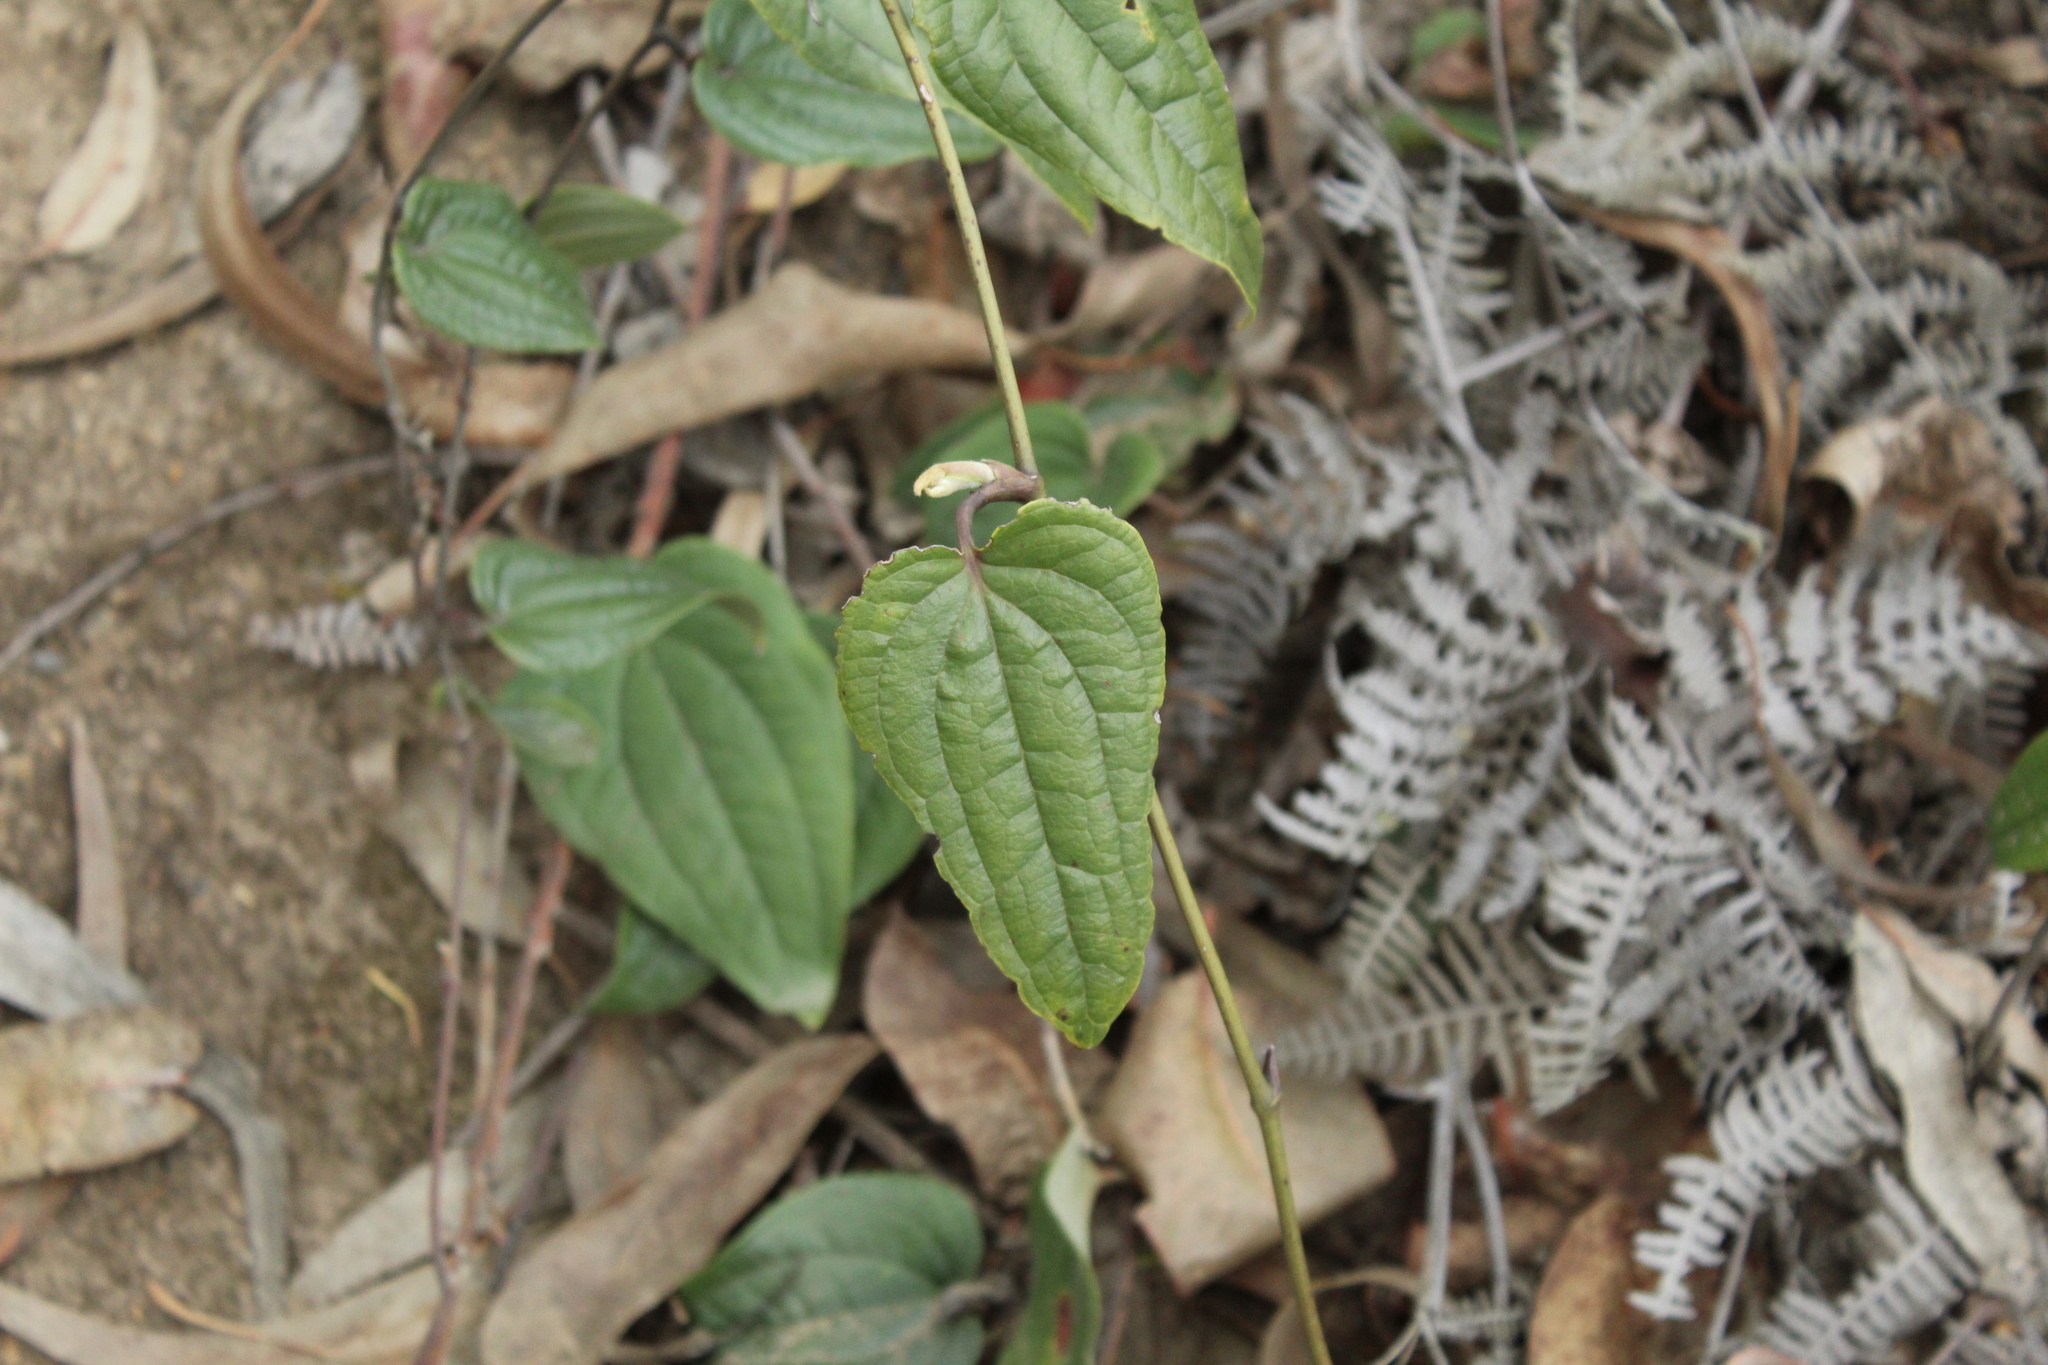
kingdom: Plantae
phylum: Tracheophyta
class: Liliopsida
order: Liliales
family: Smilacaceae
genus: Smilax
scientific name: Smilax tomentosa
